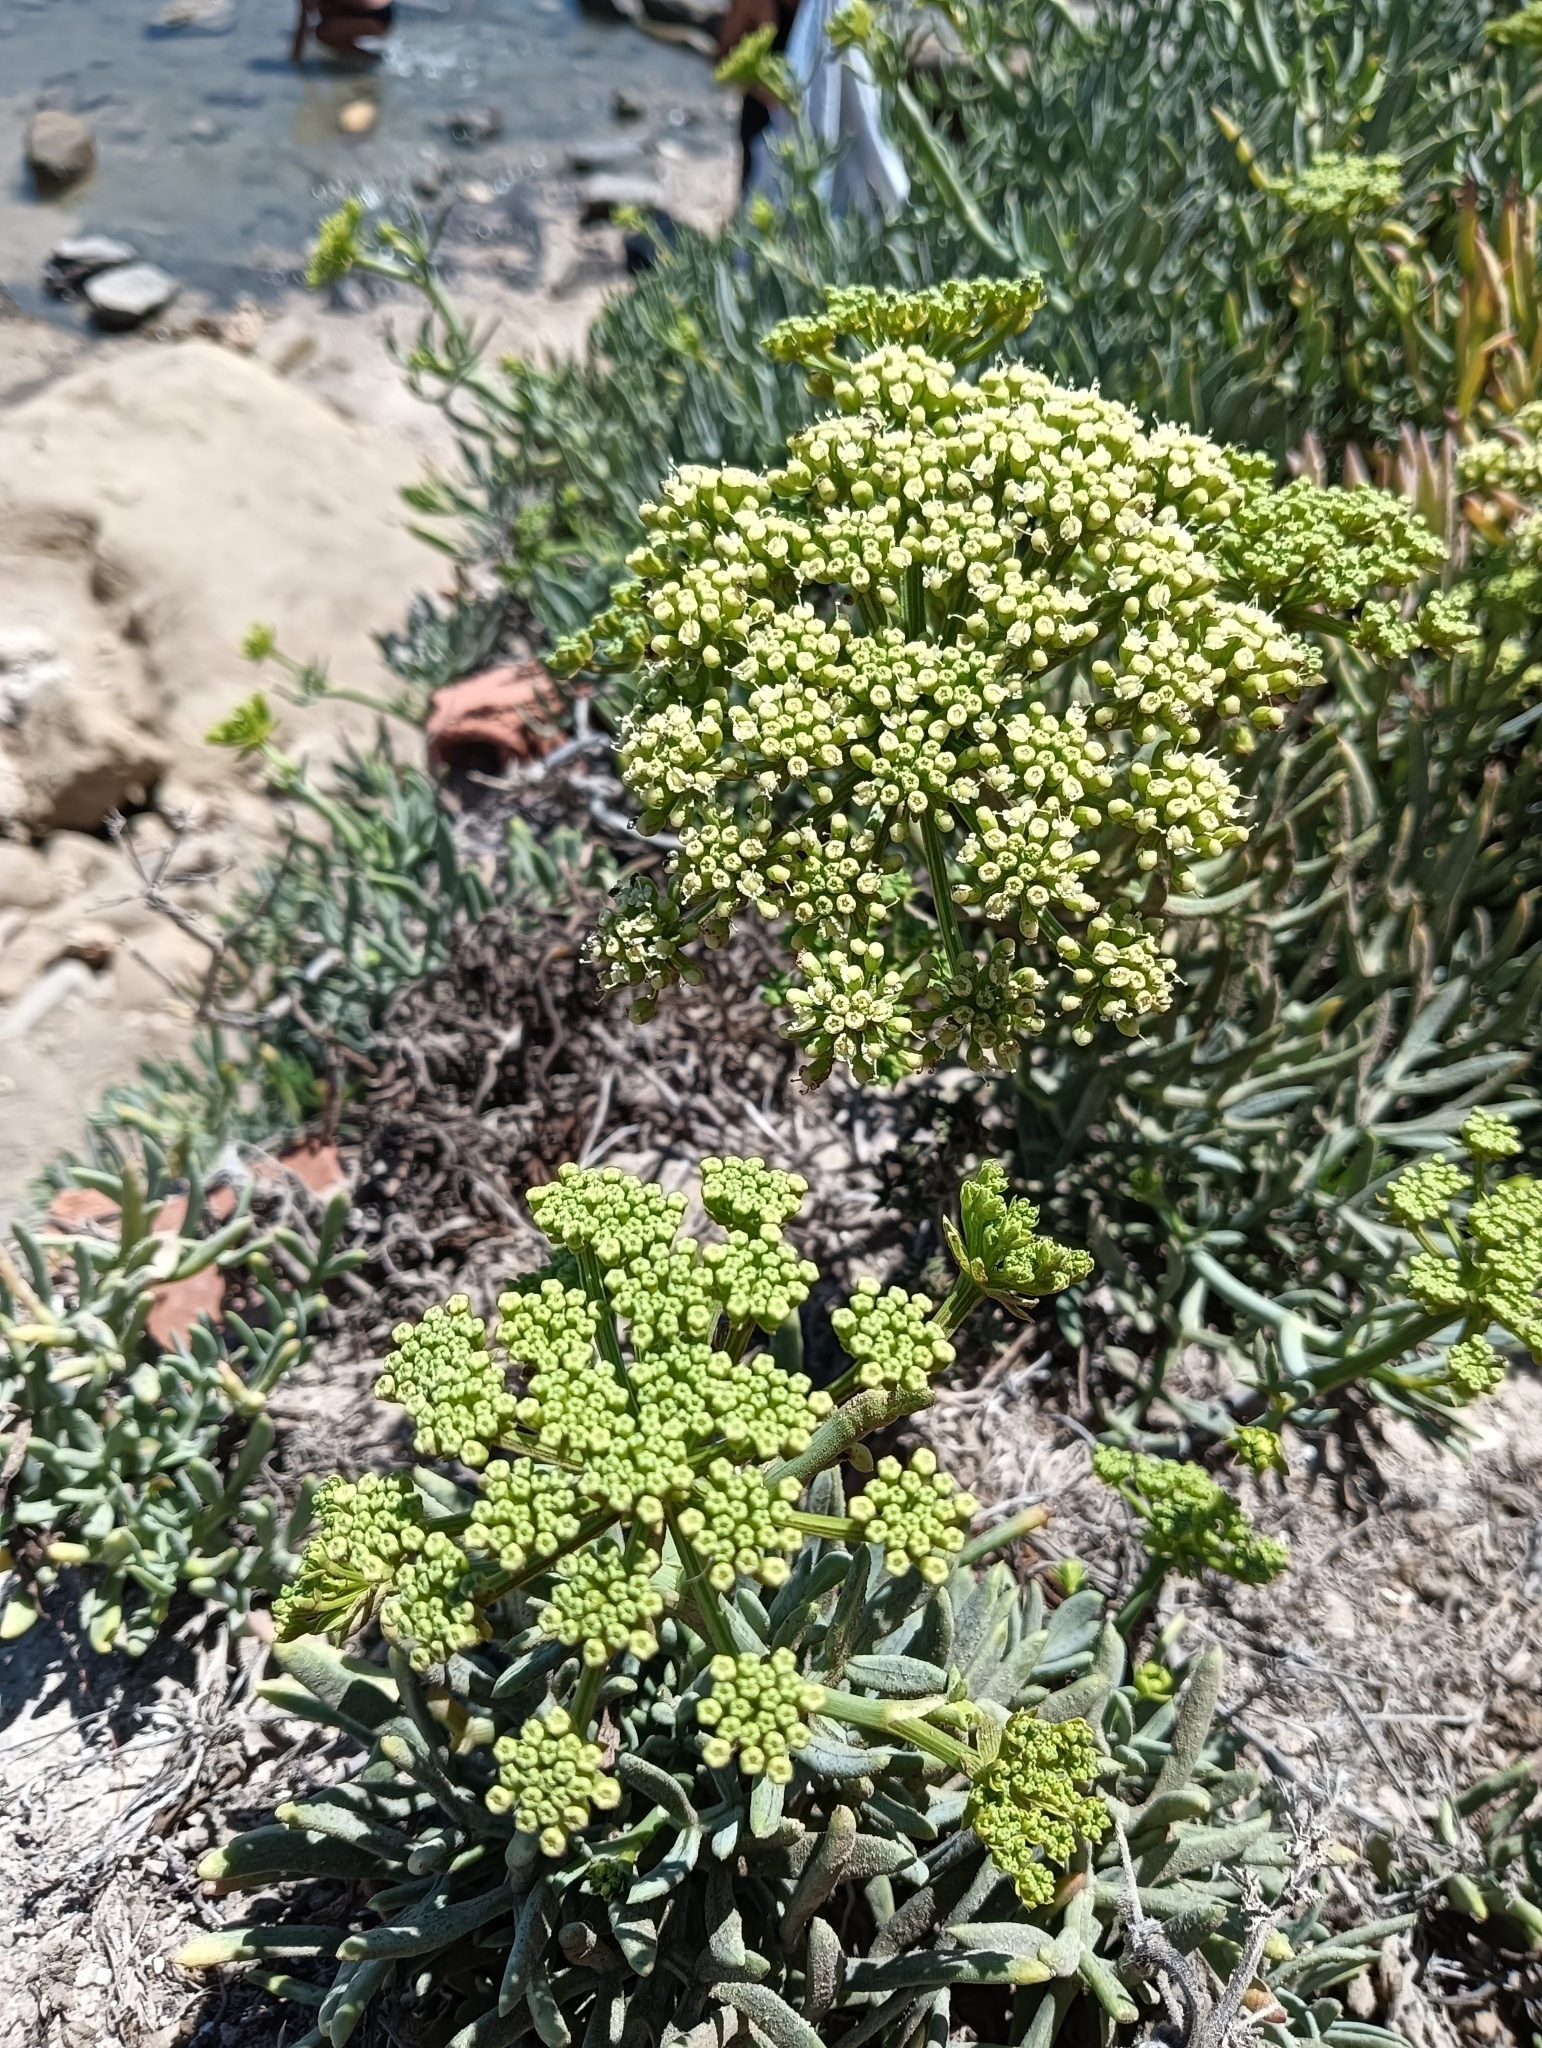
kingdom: Plantae
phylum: Tracheophyta
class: Magnoliopsida
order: Apiales
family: Apiaceae
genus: Crithmum
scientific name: Crithmum maritimum
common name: Rock samphire
